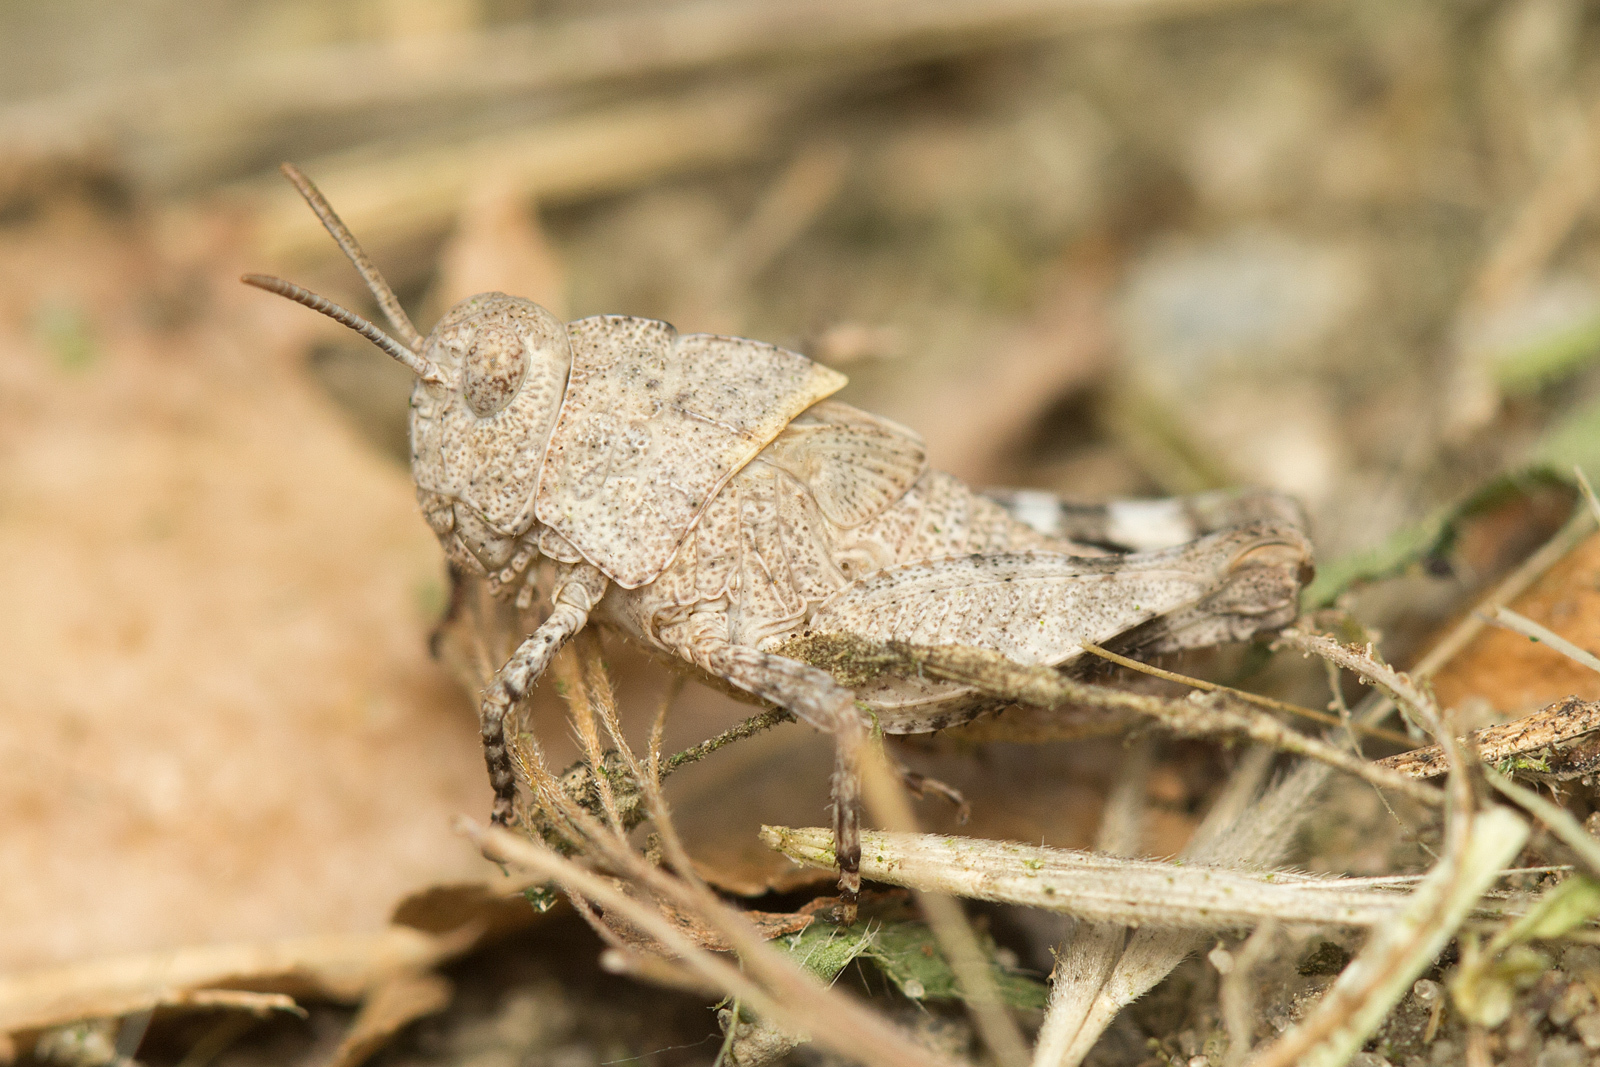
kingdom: Animalia
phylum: Arthropoda
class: Insecta
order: Orthoptera
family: Acrididae
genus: Oedipoda
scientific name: Oedipoda caerulescens
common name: Blue-winged grasshopper
